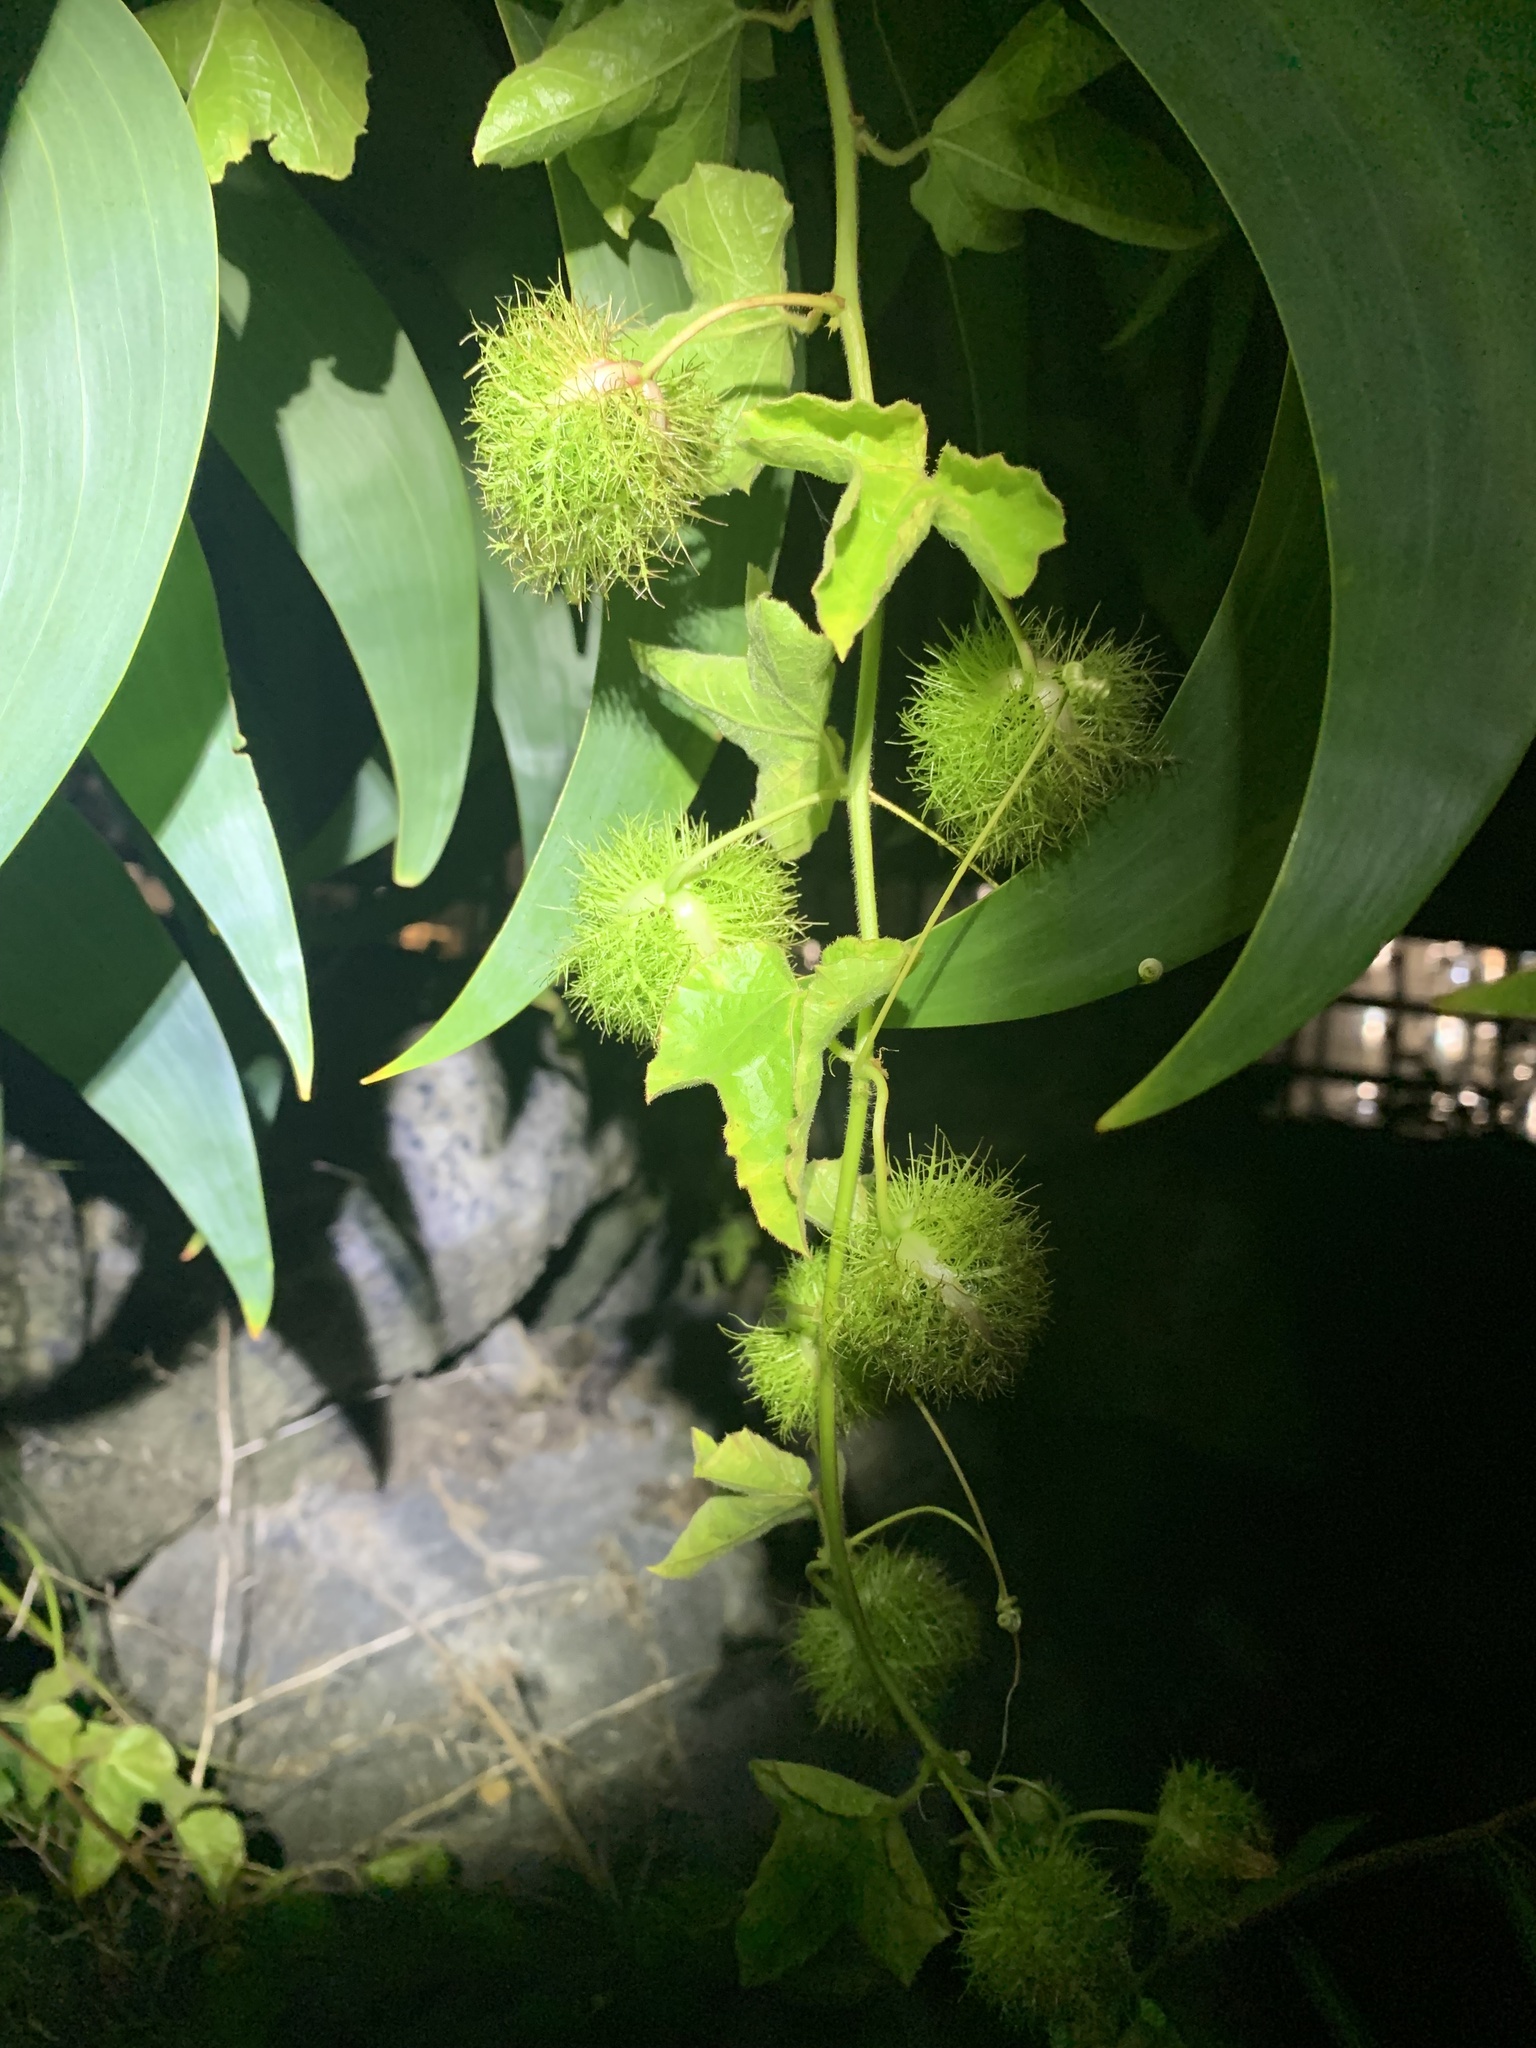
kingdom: Plantae
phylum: Tracheophyta
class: Magnoliopsida
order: Gentianales
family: Rubiaceae
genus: Saprosma
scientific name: Saprosma
